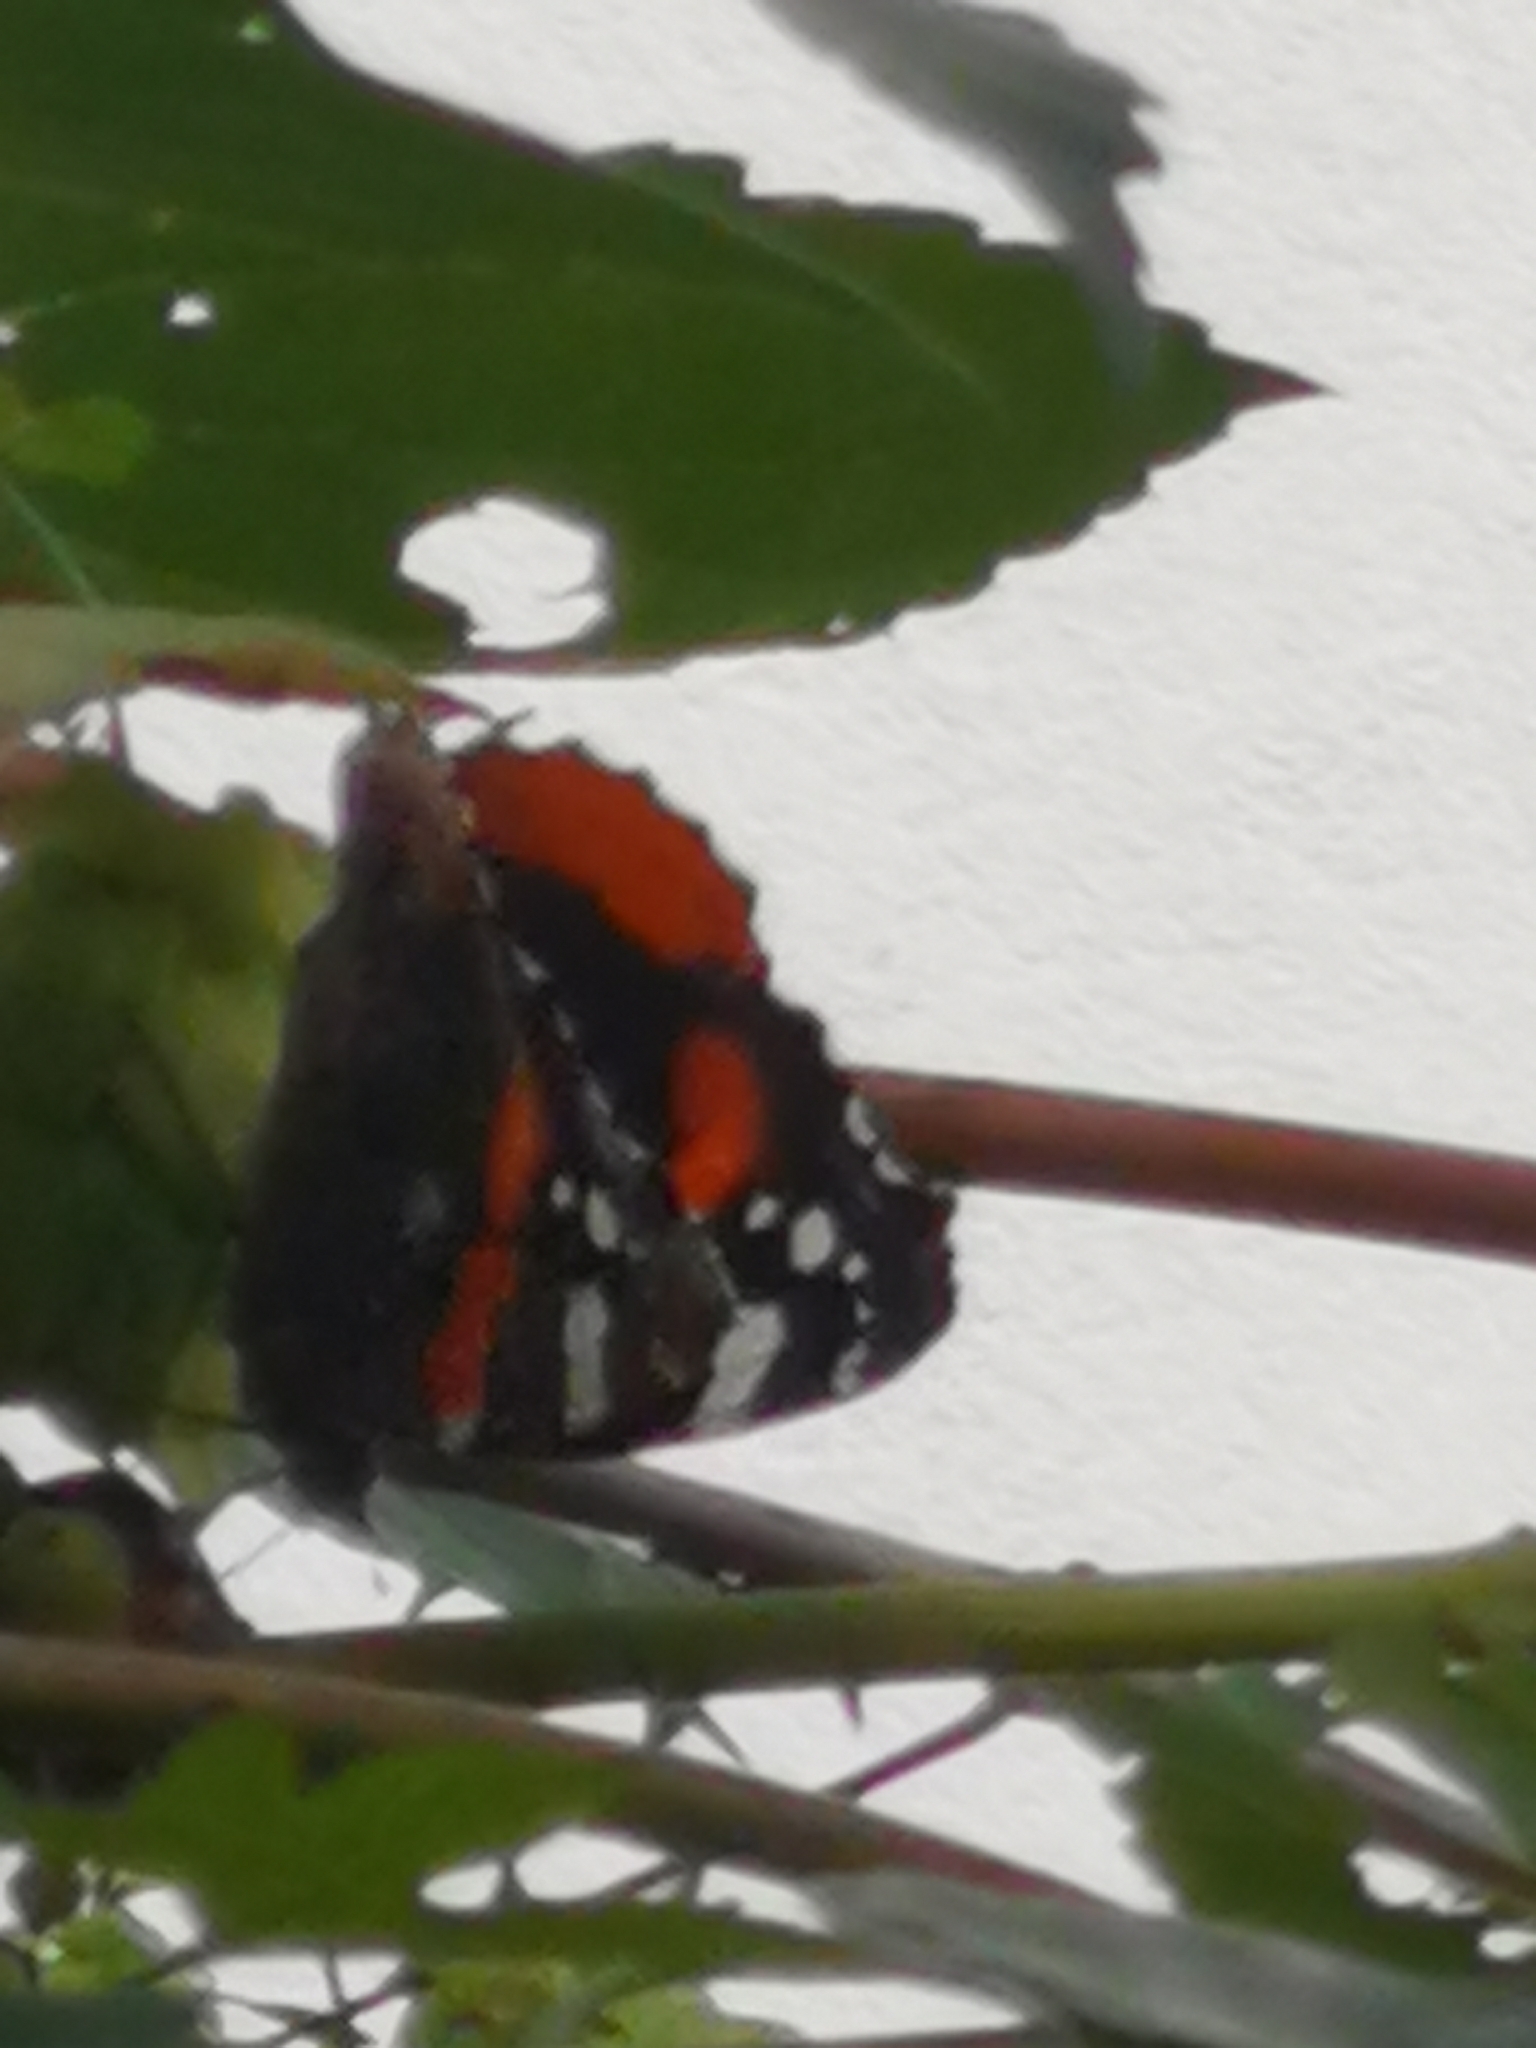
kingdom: Animalia
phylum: Arthropoda
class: Insecta
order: Lepidoptera
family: Nymphalidae
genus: Vanessa
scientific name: Vanessa atalanta
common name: Red admiral
